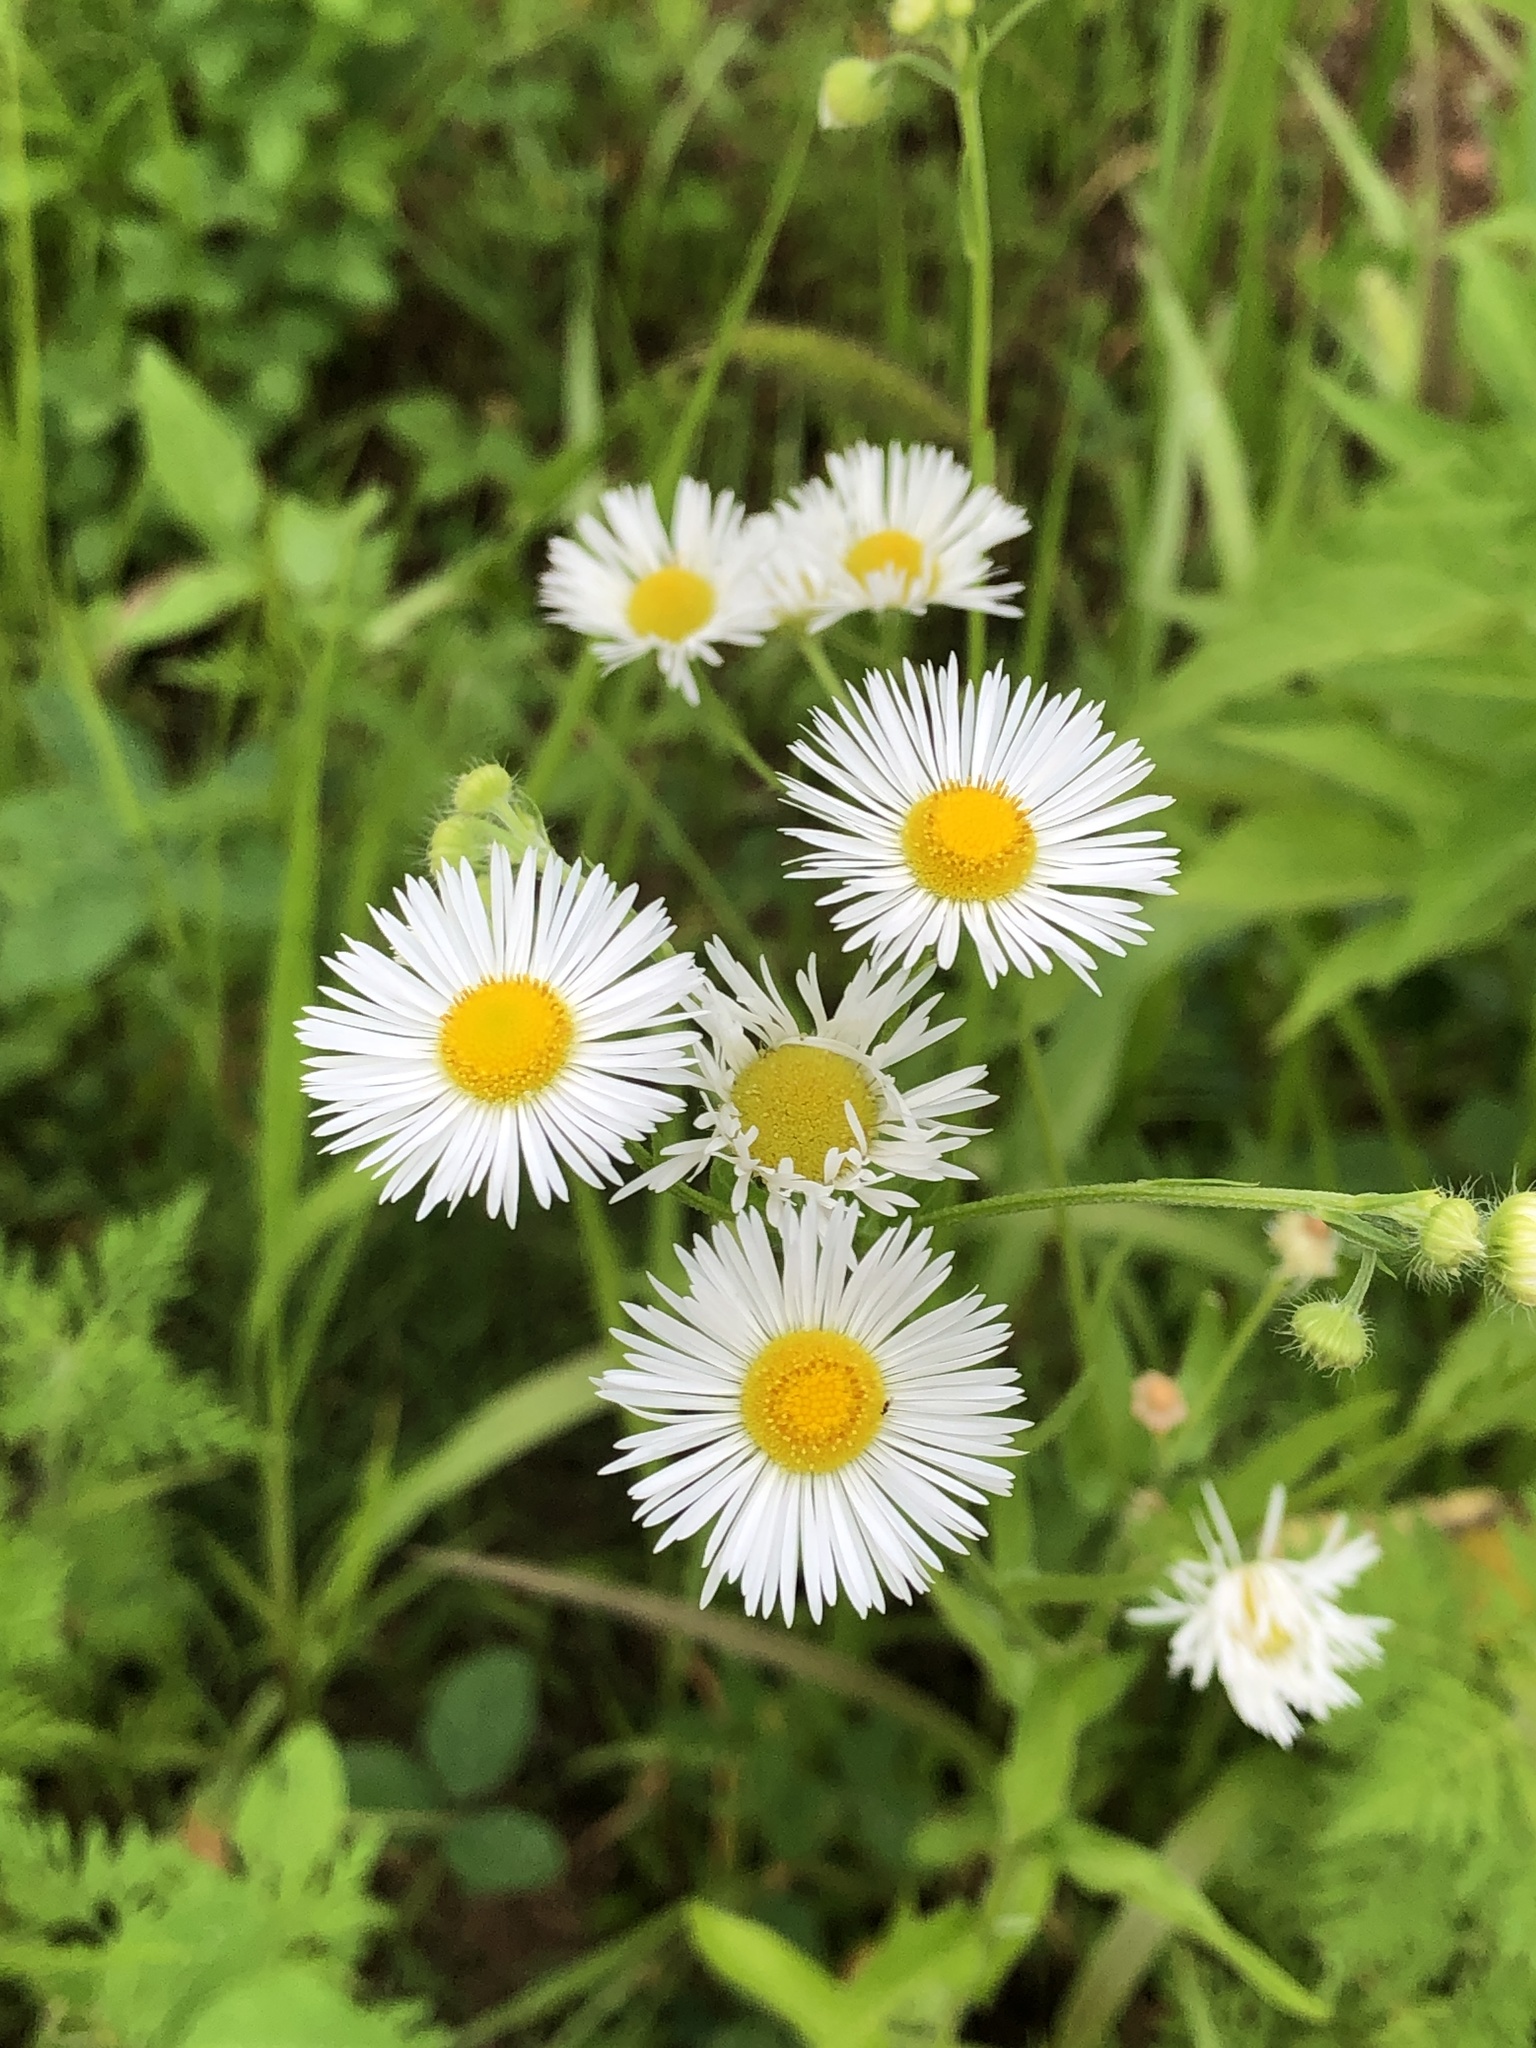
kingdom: Plantae
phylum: Tracheophyta
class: Magnoliopsida
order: Asterales
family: Asteraceae
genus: Erigeron
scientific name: Erigeron annuus
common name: Tall fleabane
